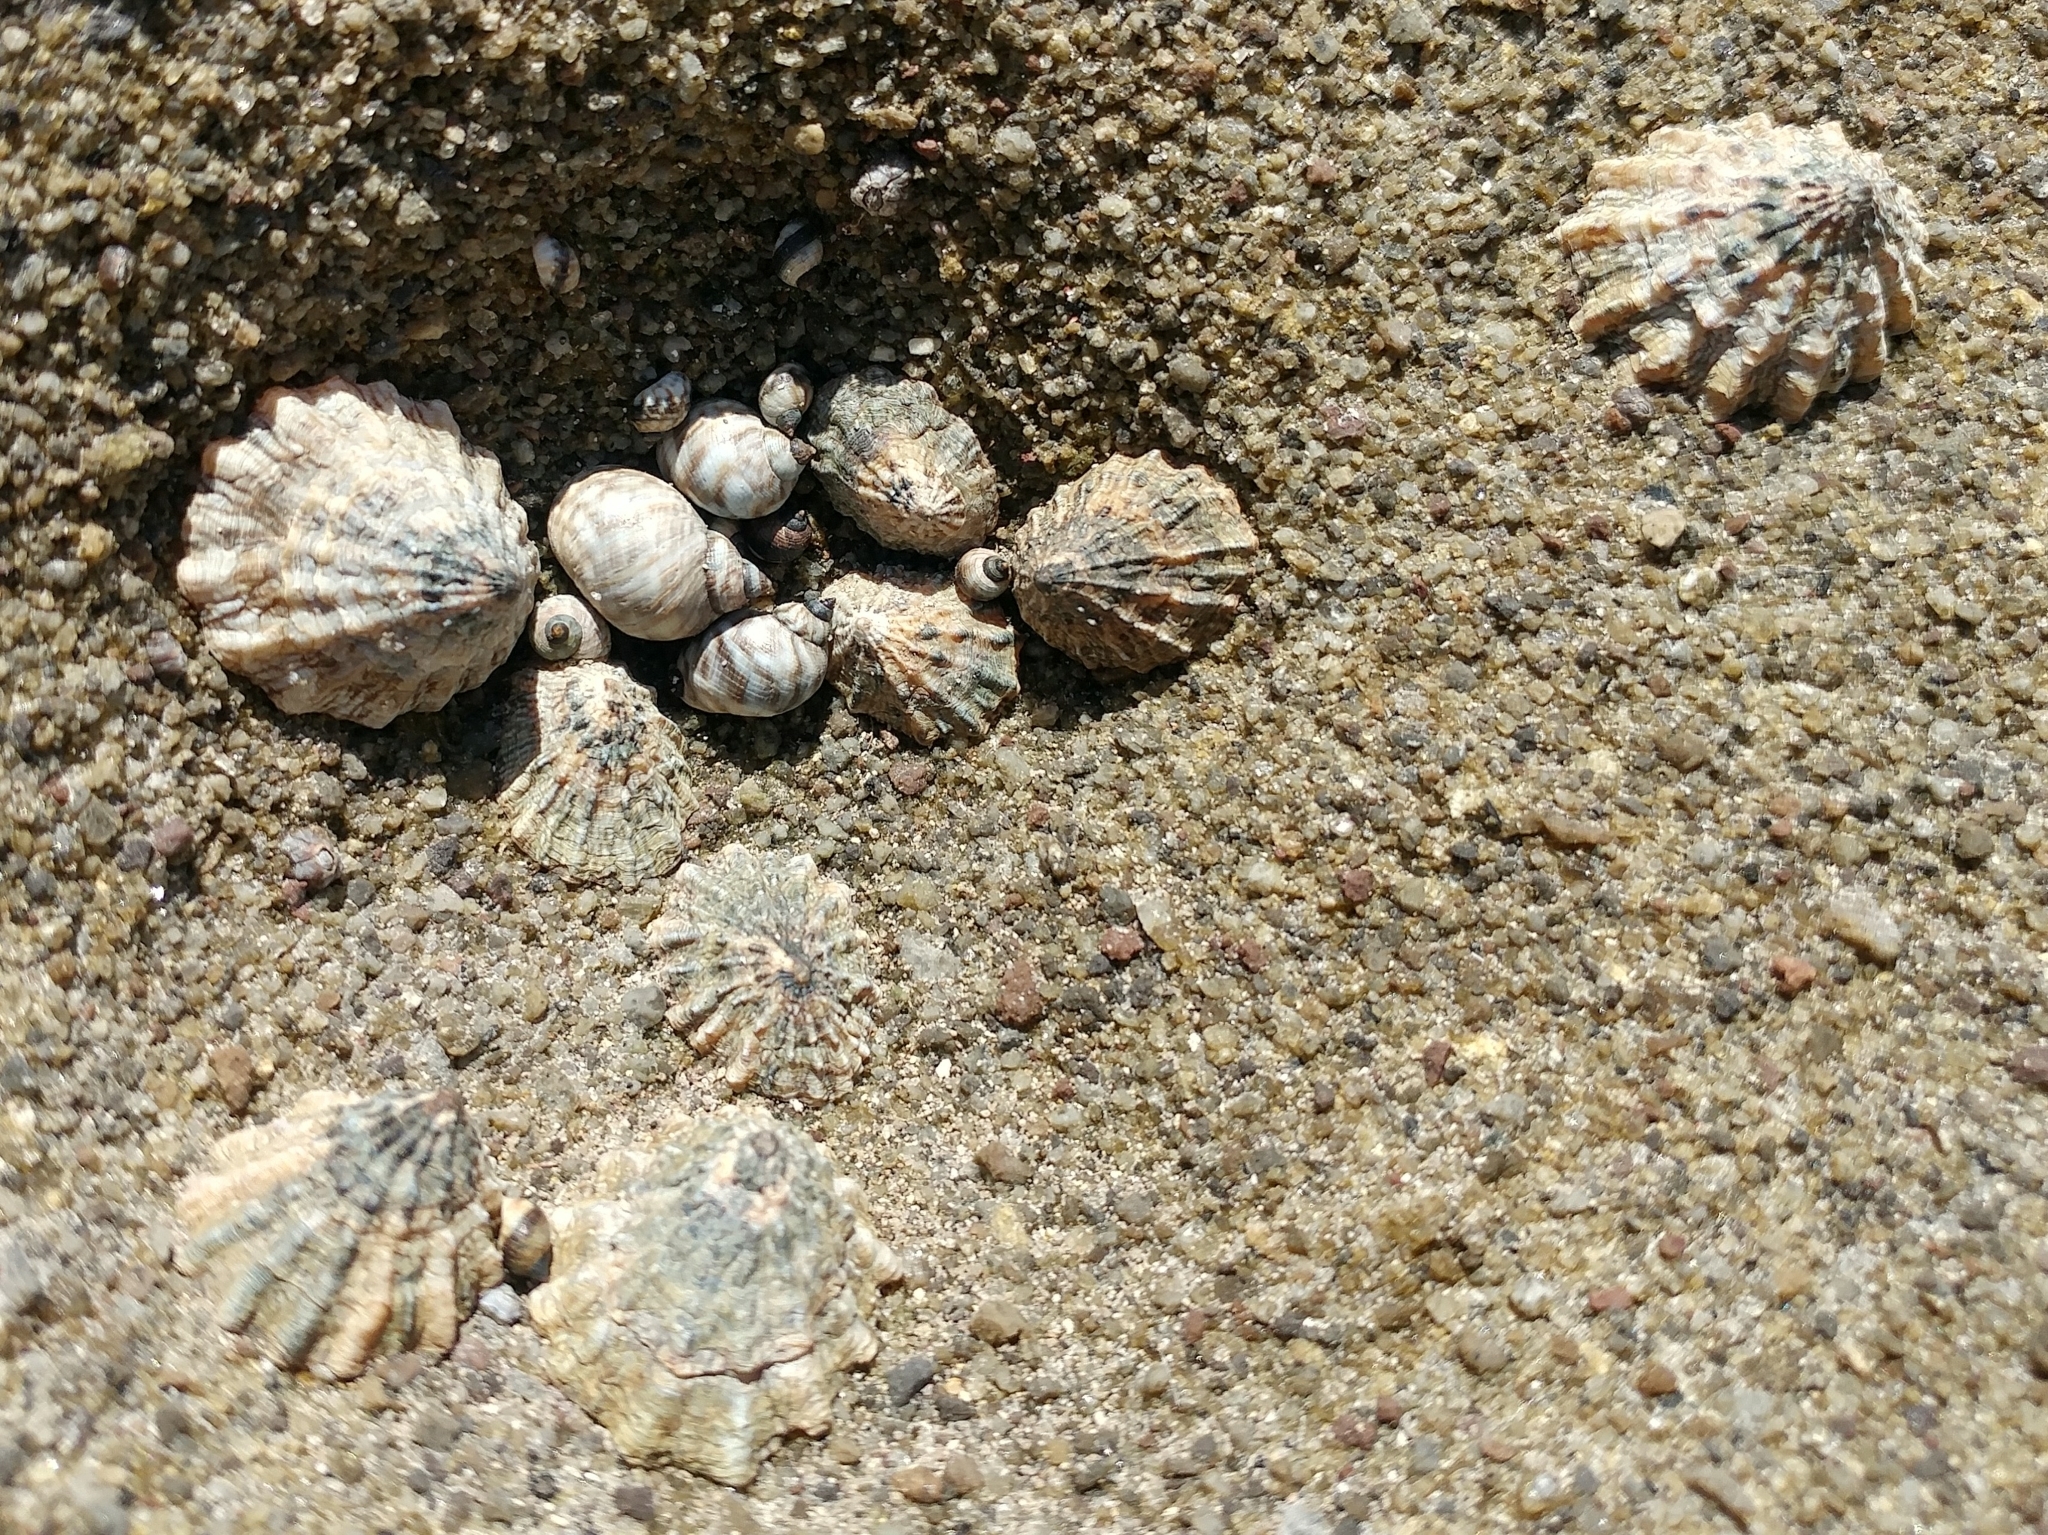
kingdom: Animalia
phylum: Mollusca
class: Gastropoda
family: Lottiidae
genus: Lottia
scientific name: Lottia scabra
